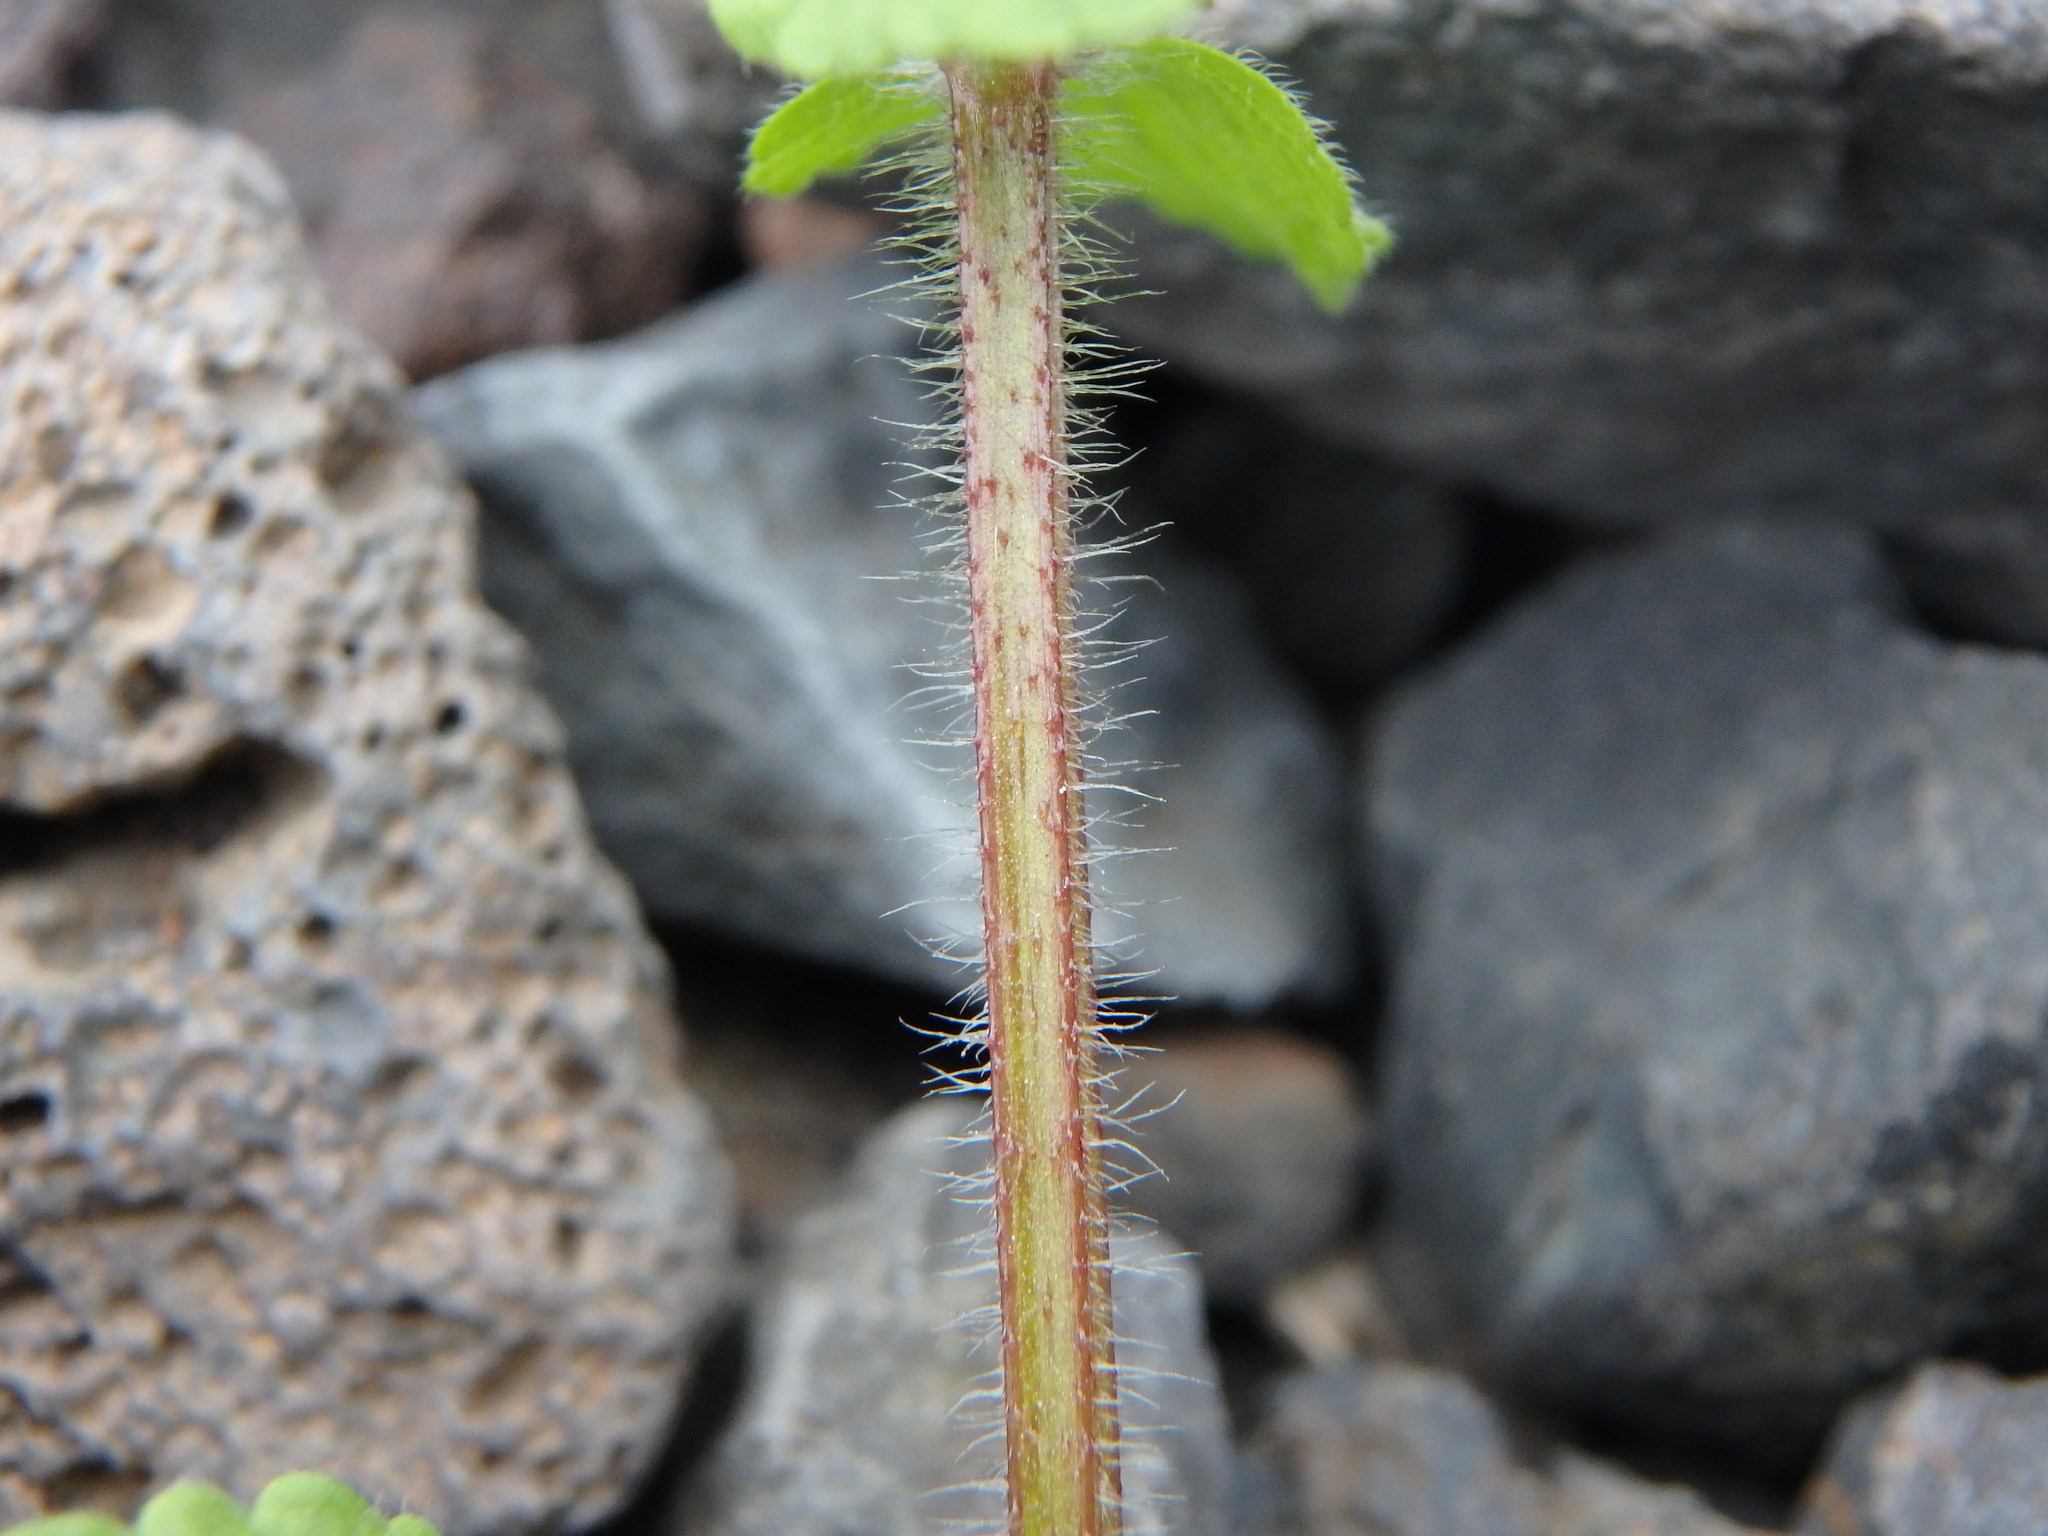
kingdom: Plantae
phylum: Tracheophyta
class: Magnoliopsida
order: Lamiales
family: Lamiaceae
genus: Stachys
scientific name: Stachys arvensis
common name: Field woundwort
